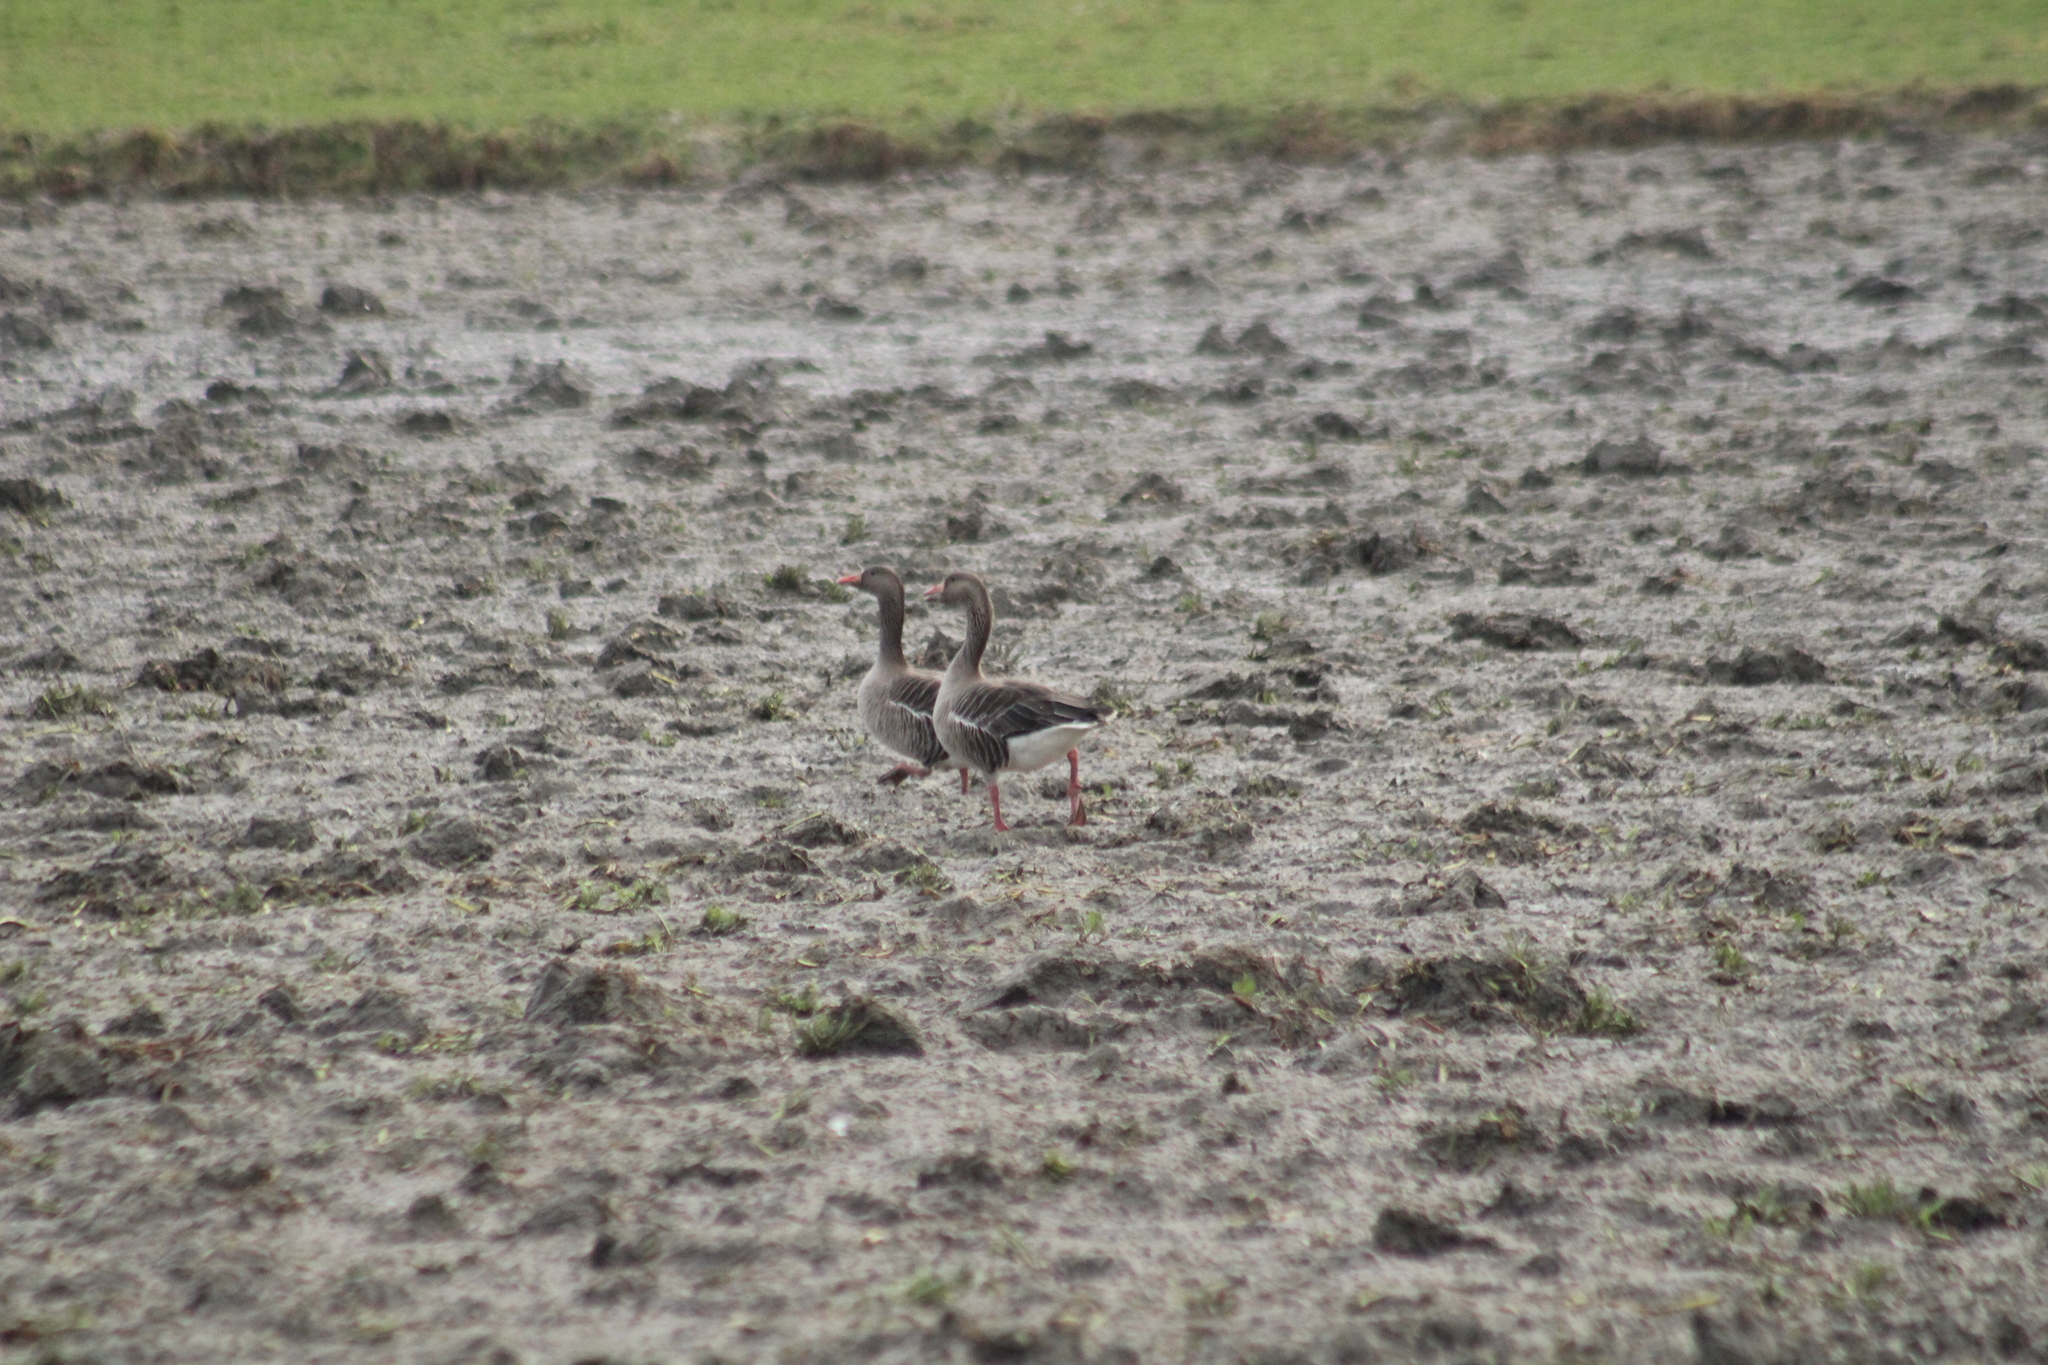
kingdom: Animalia
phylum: Chordata
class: Aves
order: Anseriformes
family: Anatidae
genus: Anser
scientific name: Anser anser
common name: Greylag goose
